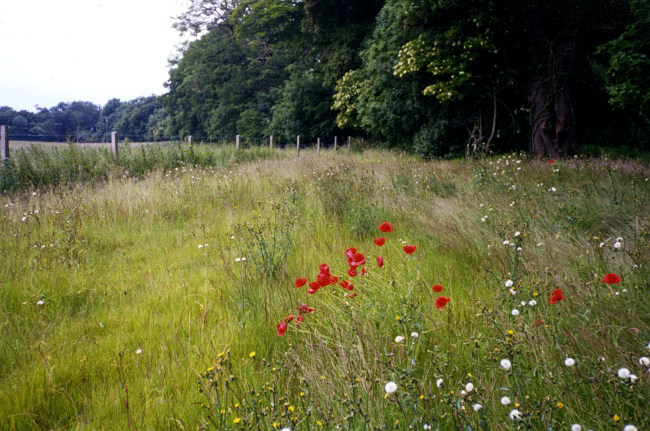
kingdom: Plantae
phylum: Tracheophyta
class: Magnoliopsida
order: Ranunculales
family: Papaveraceae
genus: Papaver
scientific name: Papaver rhoeas
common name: Corn poppy
